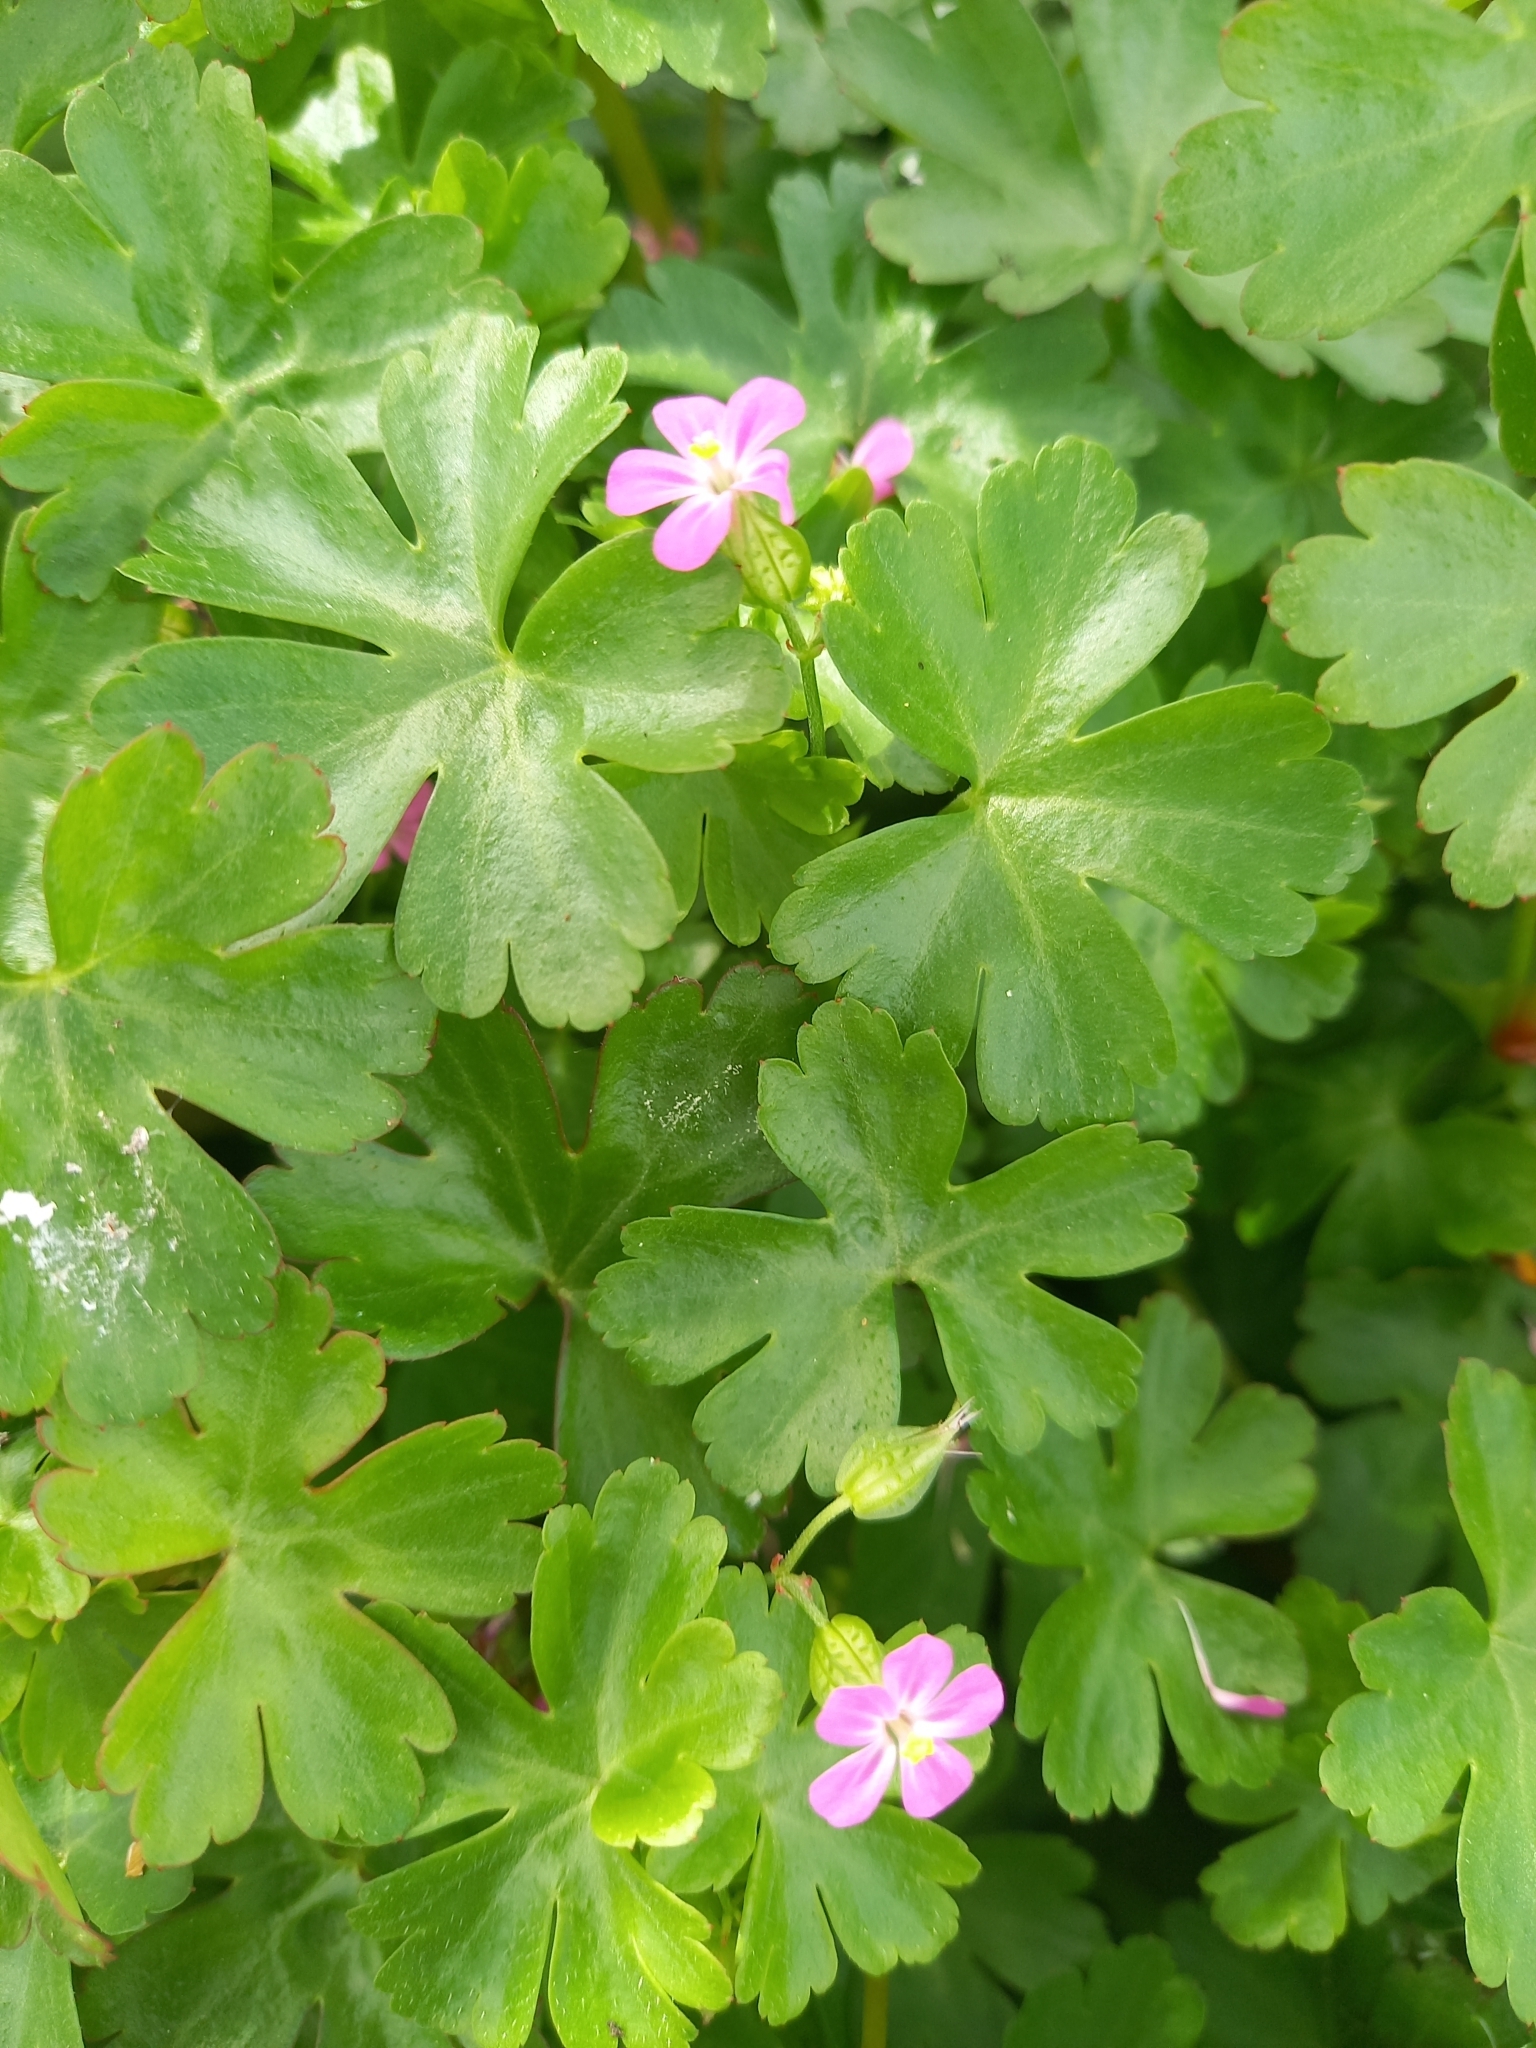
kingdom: Plantae
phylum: Tracheophyta
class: Magnoliopsida
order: Geraniales
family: Geraniaceae
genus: Geranium
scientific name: Geranium lucidum
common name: Shining crane's-bill
